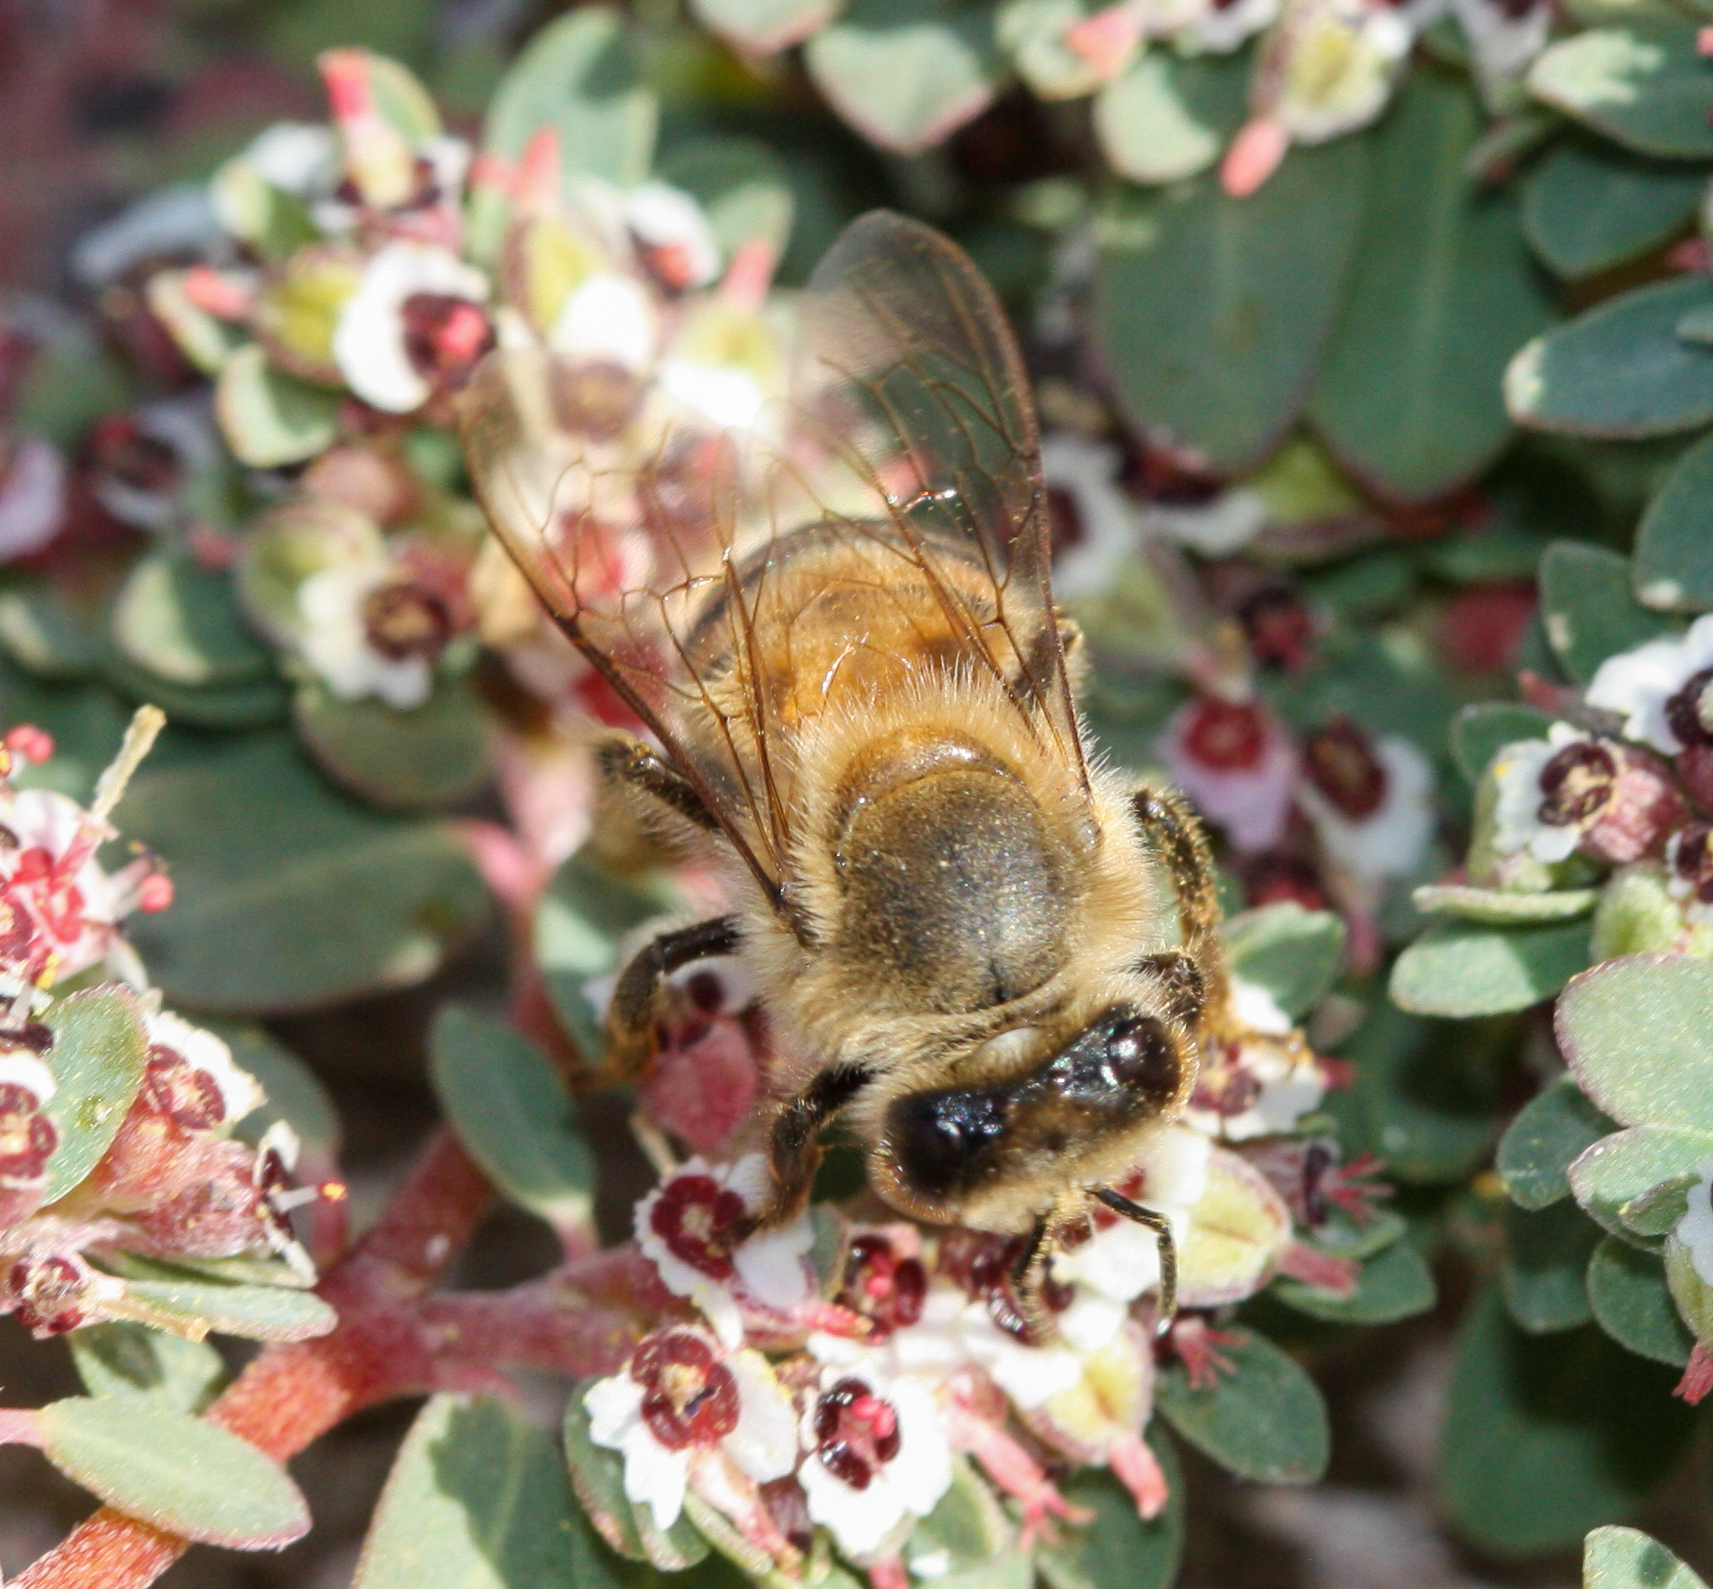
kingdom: Animalia
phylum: Arthropoda
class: Insecta
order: Hymenoptera
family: Apidae
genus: Apis
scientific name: Apis mellifera
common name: Honey bee
